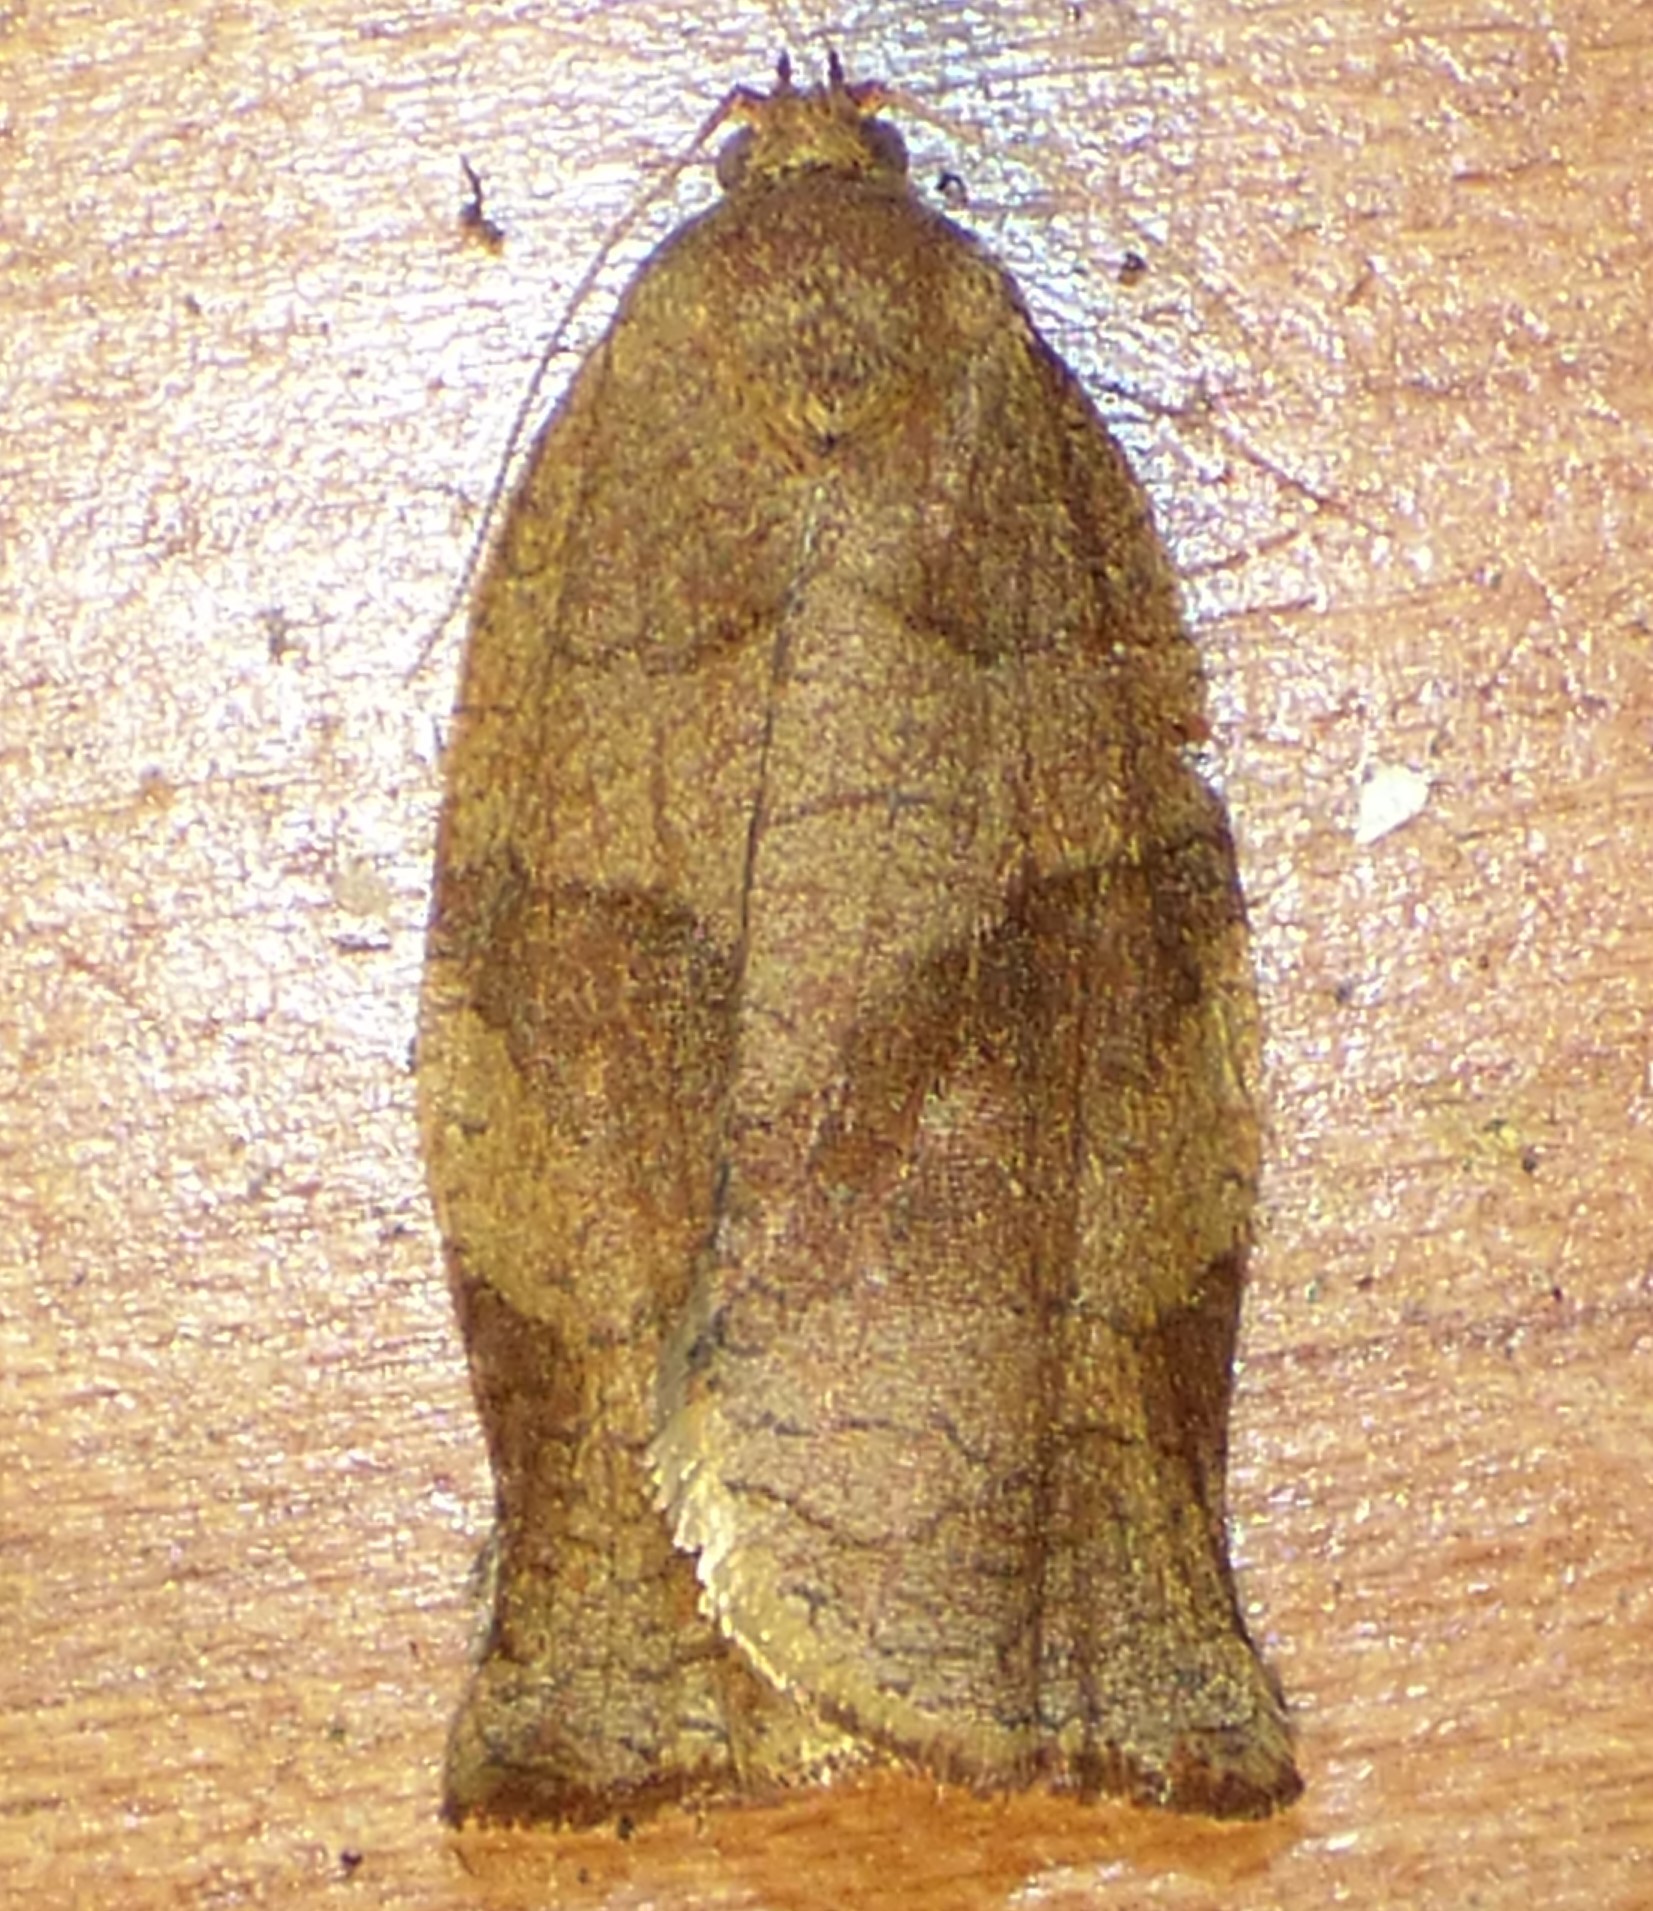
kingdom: Animalia
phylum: Arthropoda
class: Insecta
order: Lepidoptera
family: Tortricidae
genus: Choristoneura
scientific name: Choristoneura rosaceana
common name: Oblique-banded leafroller moth
